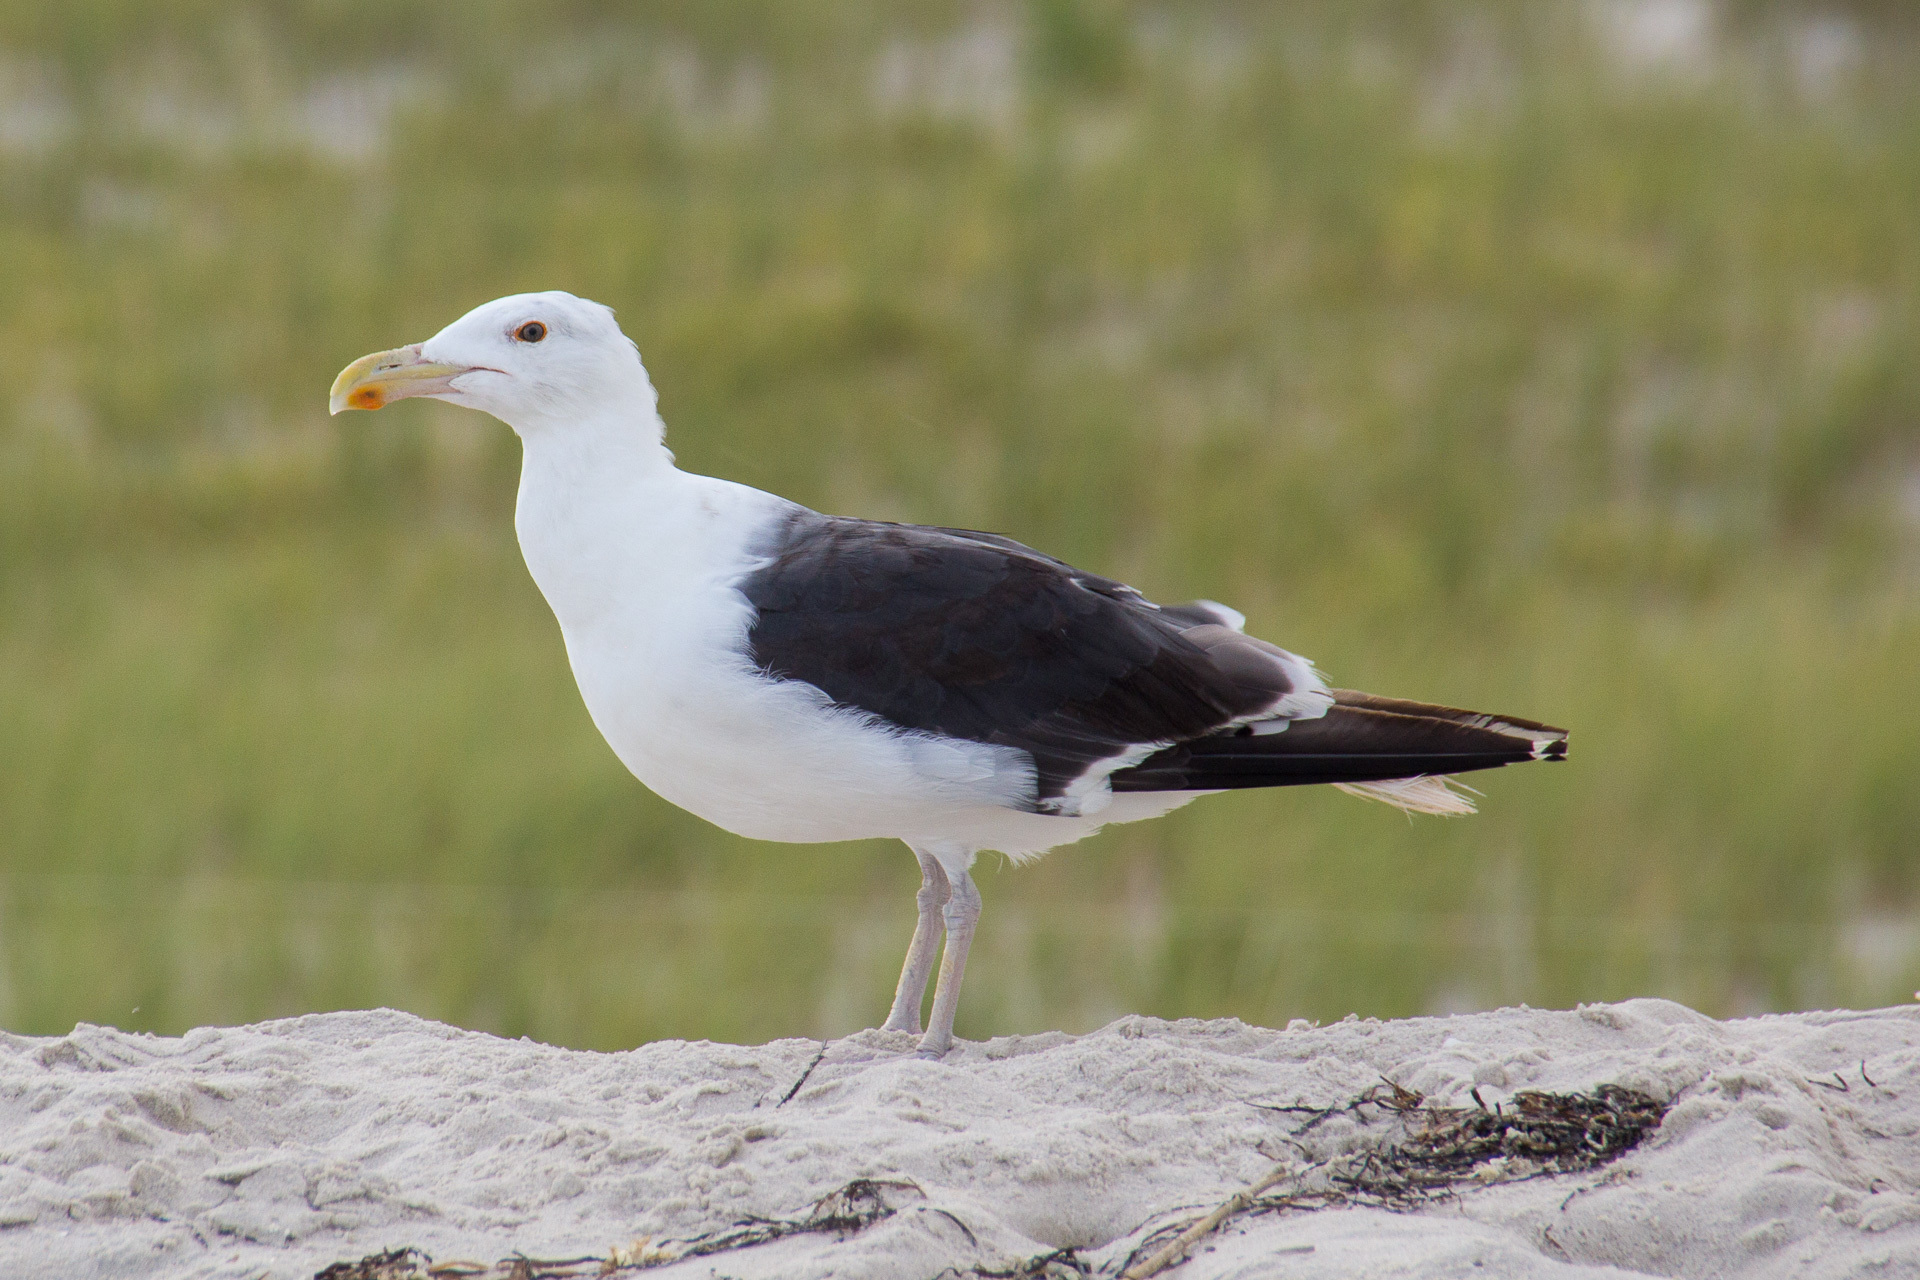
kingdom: Animalia
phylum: Chordata
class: Aves
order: Charadriiformes
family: Laridae
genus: Larus
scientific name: Larus marinus
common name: Great black-backed gull
